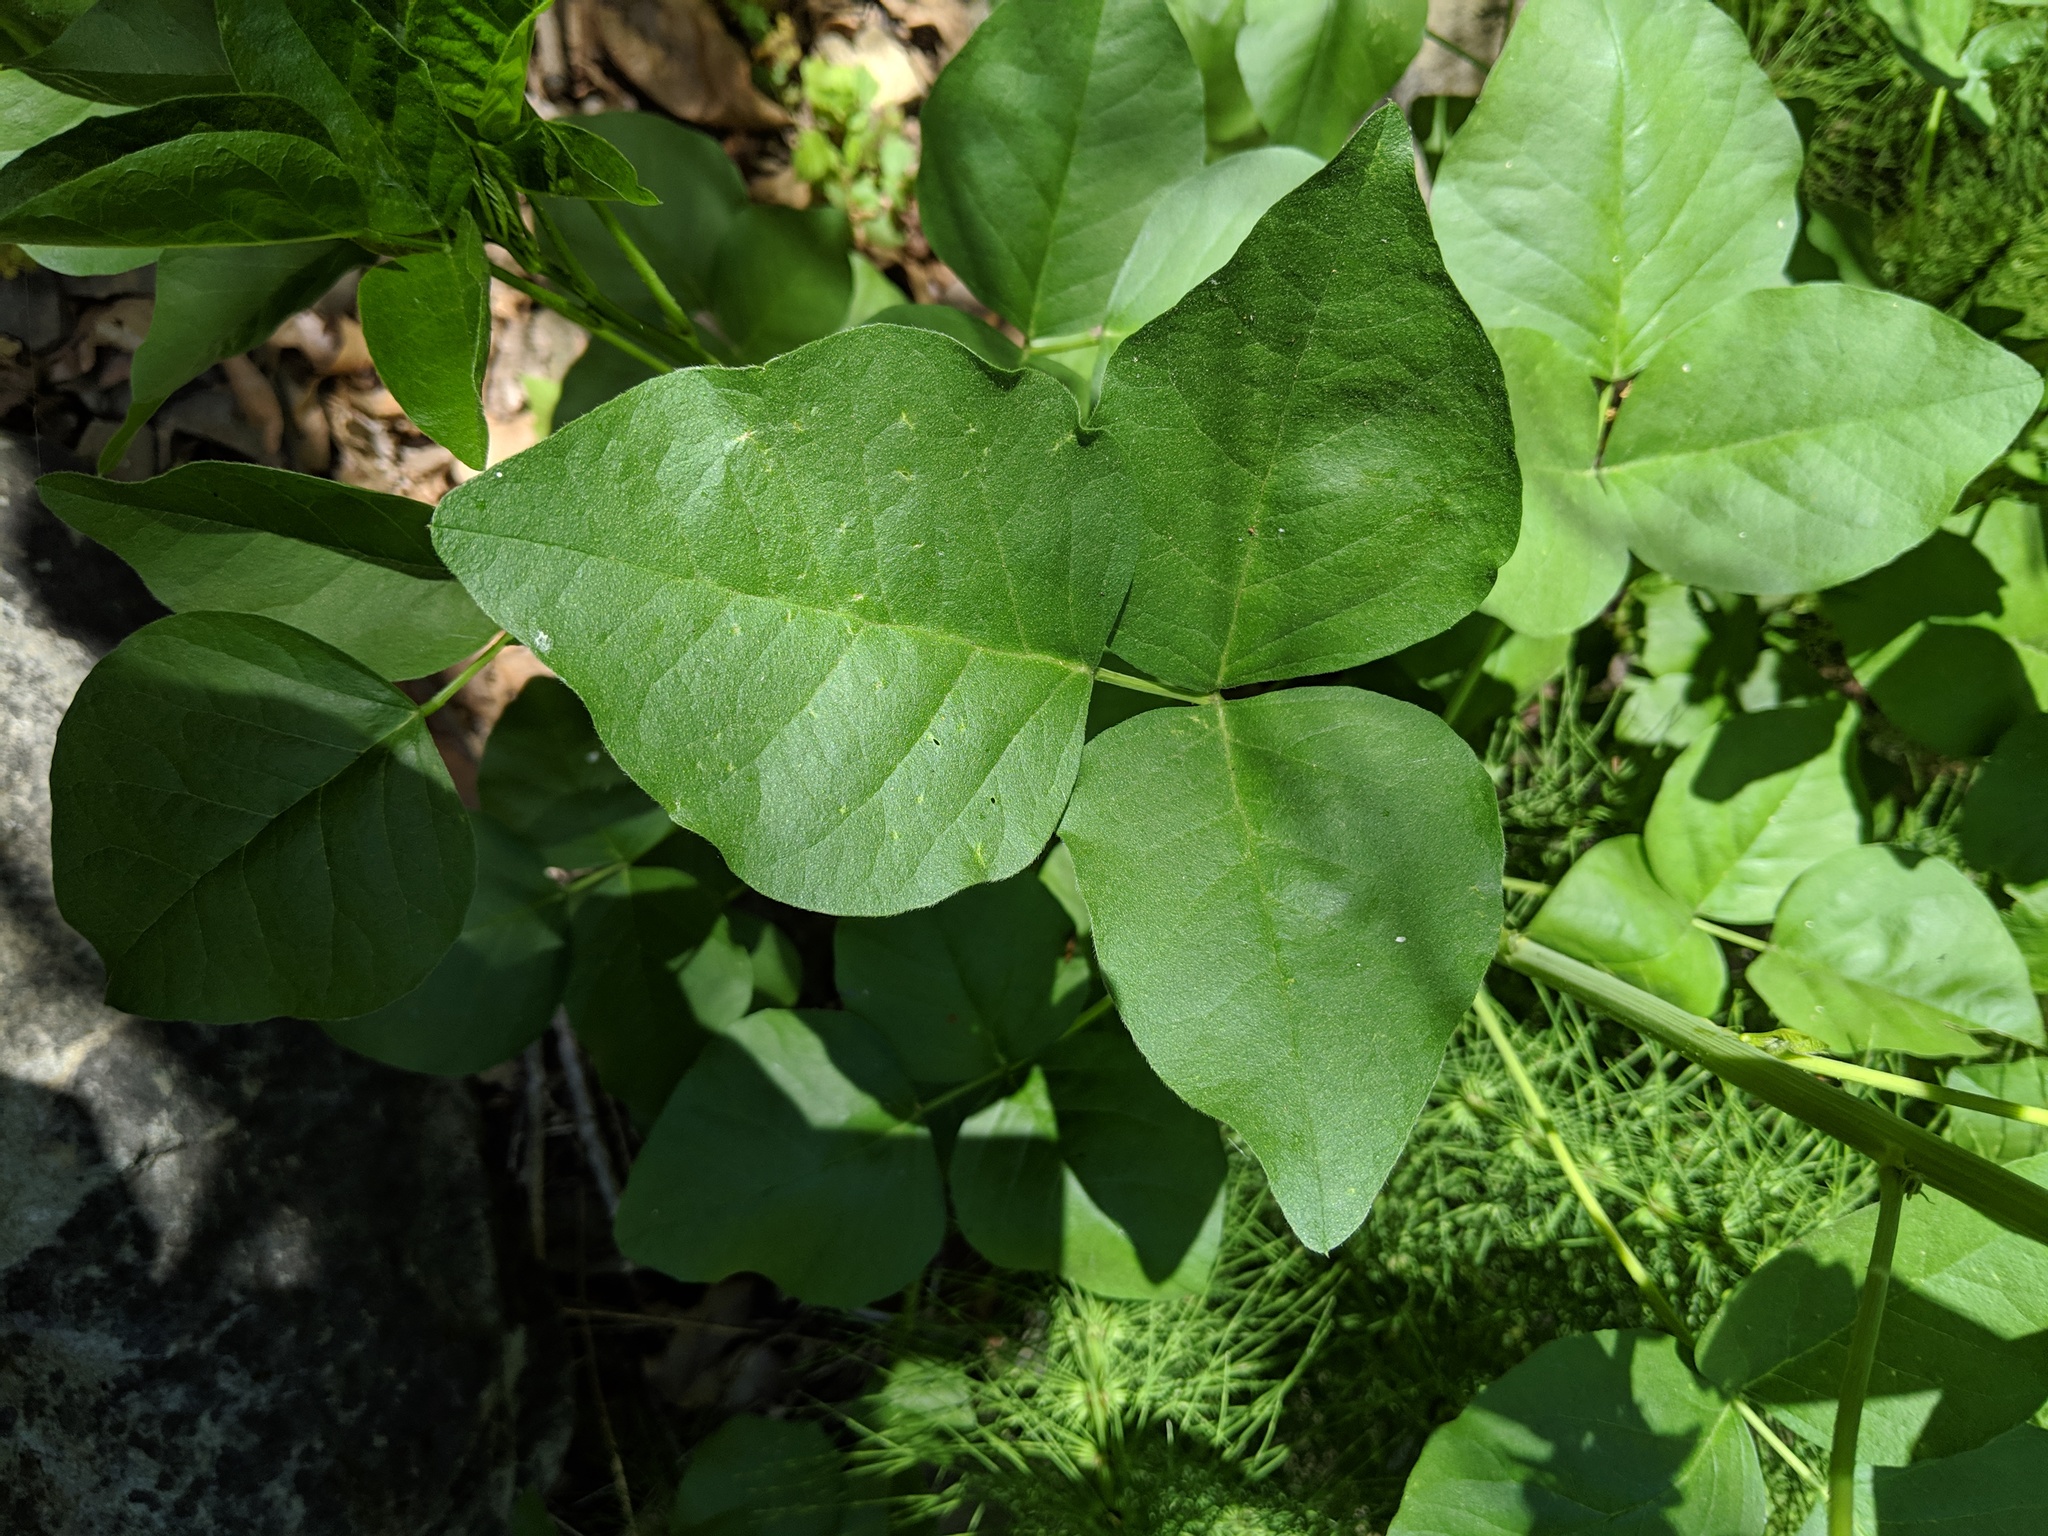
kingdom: Plantae
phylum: Tracheophyta
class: Magnoliopsida
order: Fabales
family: Fabaceae
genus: Rupertia
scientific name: Rupertia physodes
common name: California-tea
